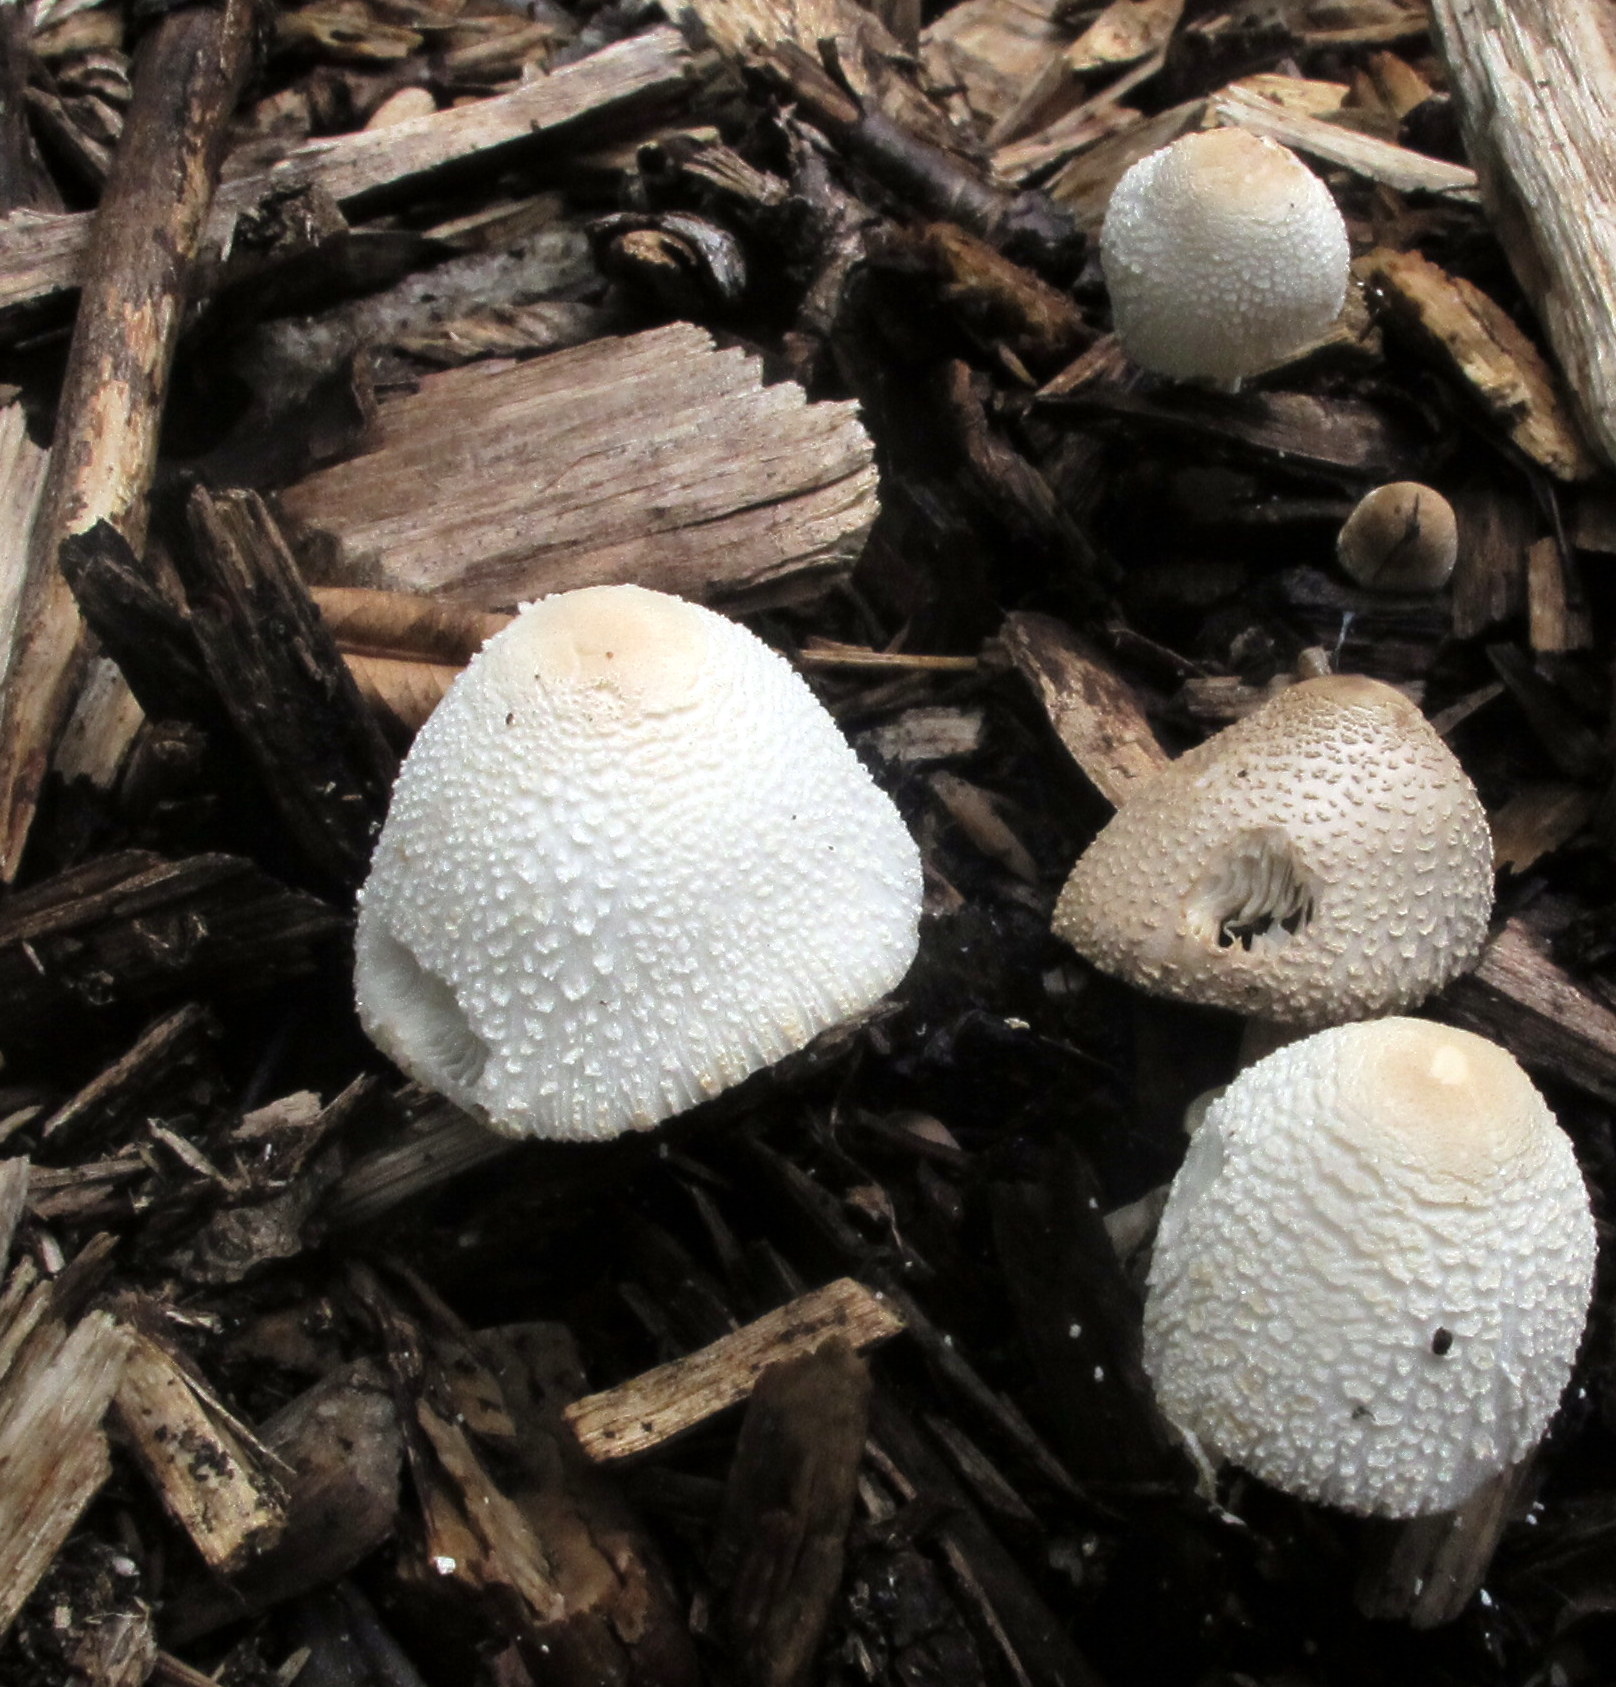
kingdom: Fungi
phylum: Basidiomycota
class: Agaricomycetes
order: Agaricales
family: Agaricaceae
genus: Leucocoprinus
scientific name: Leucocoprinus cepistipes
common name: Onion-stalk parasol
